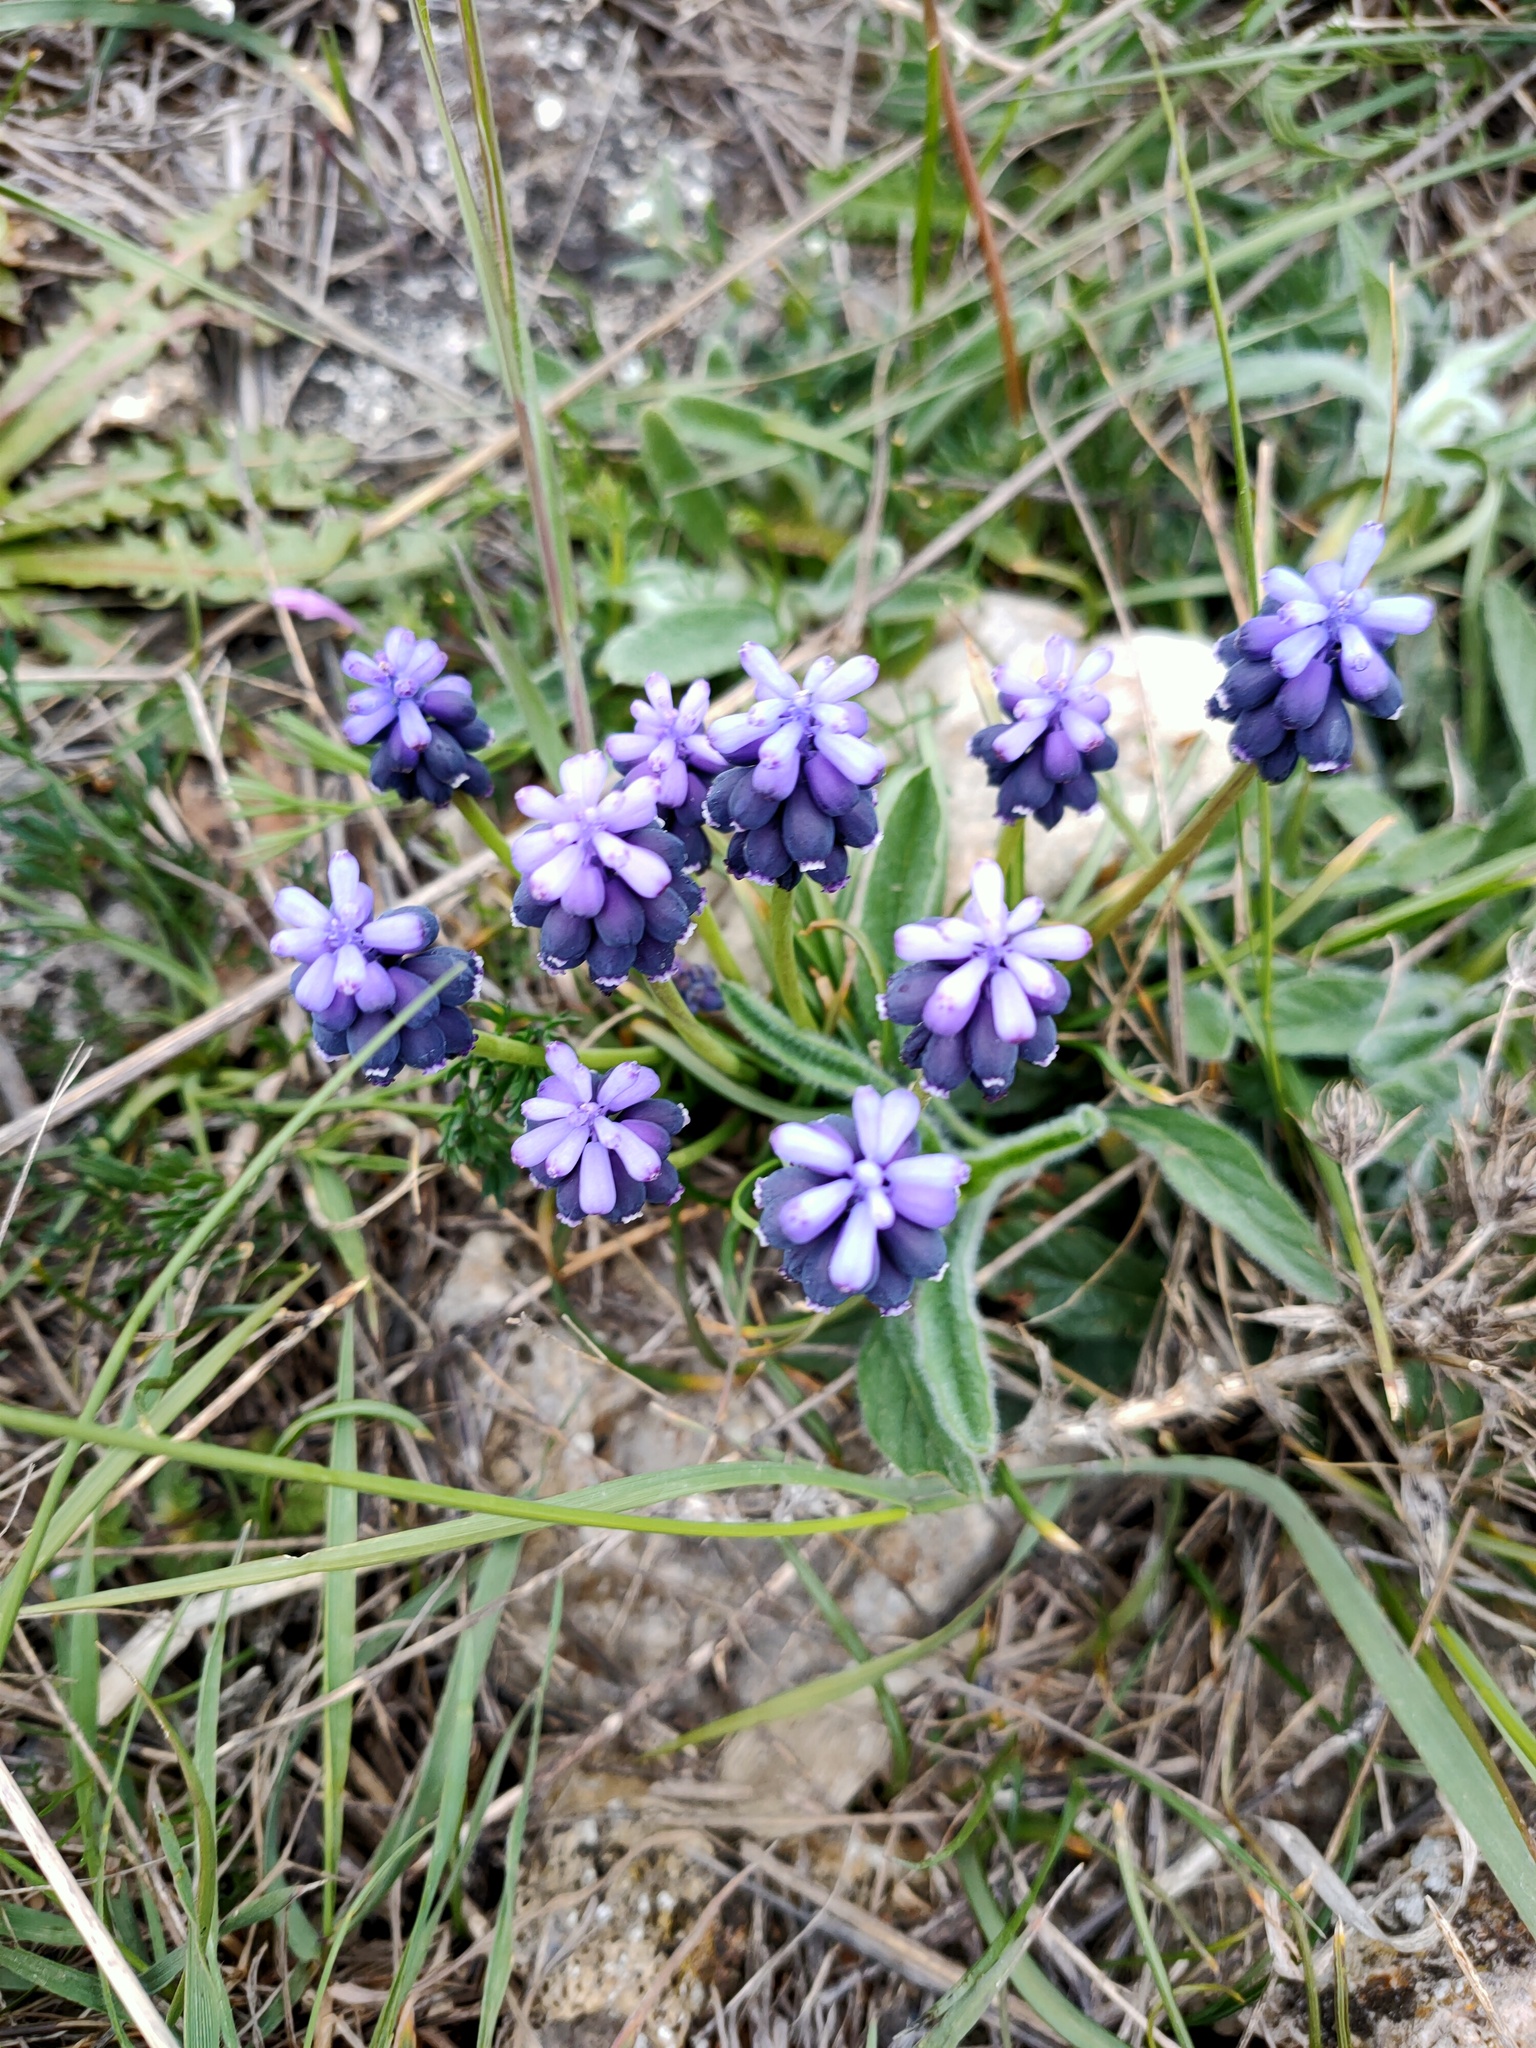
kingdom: Plantae
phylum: Tracheophyta
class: Liliopsida
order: Asparagales
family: Asparagaceae
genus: Muscari
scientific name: Muscari neglectum
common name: Grape-hyacinth
